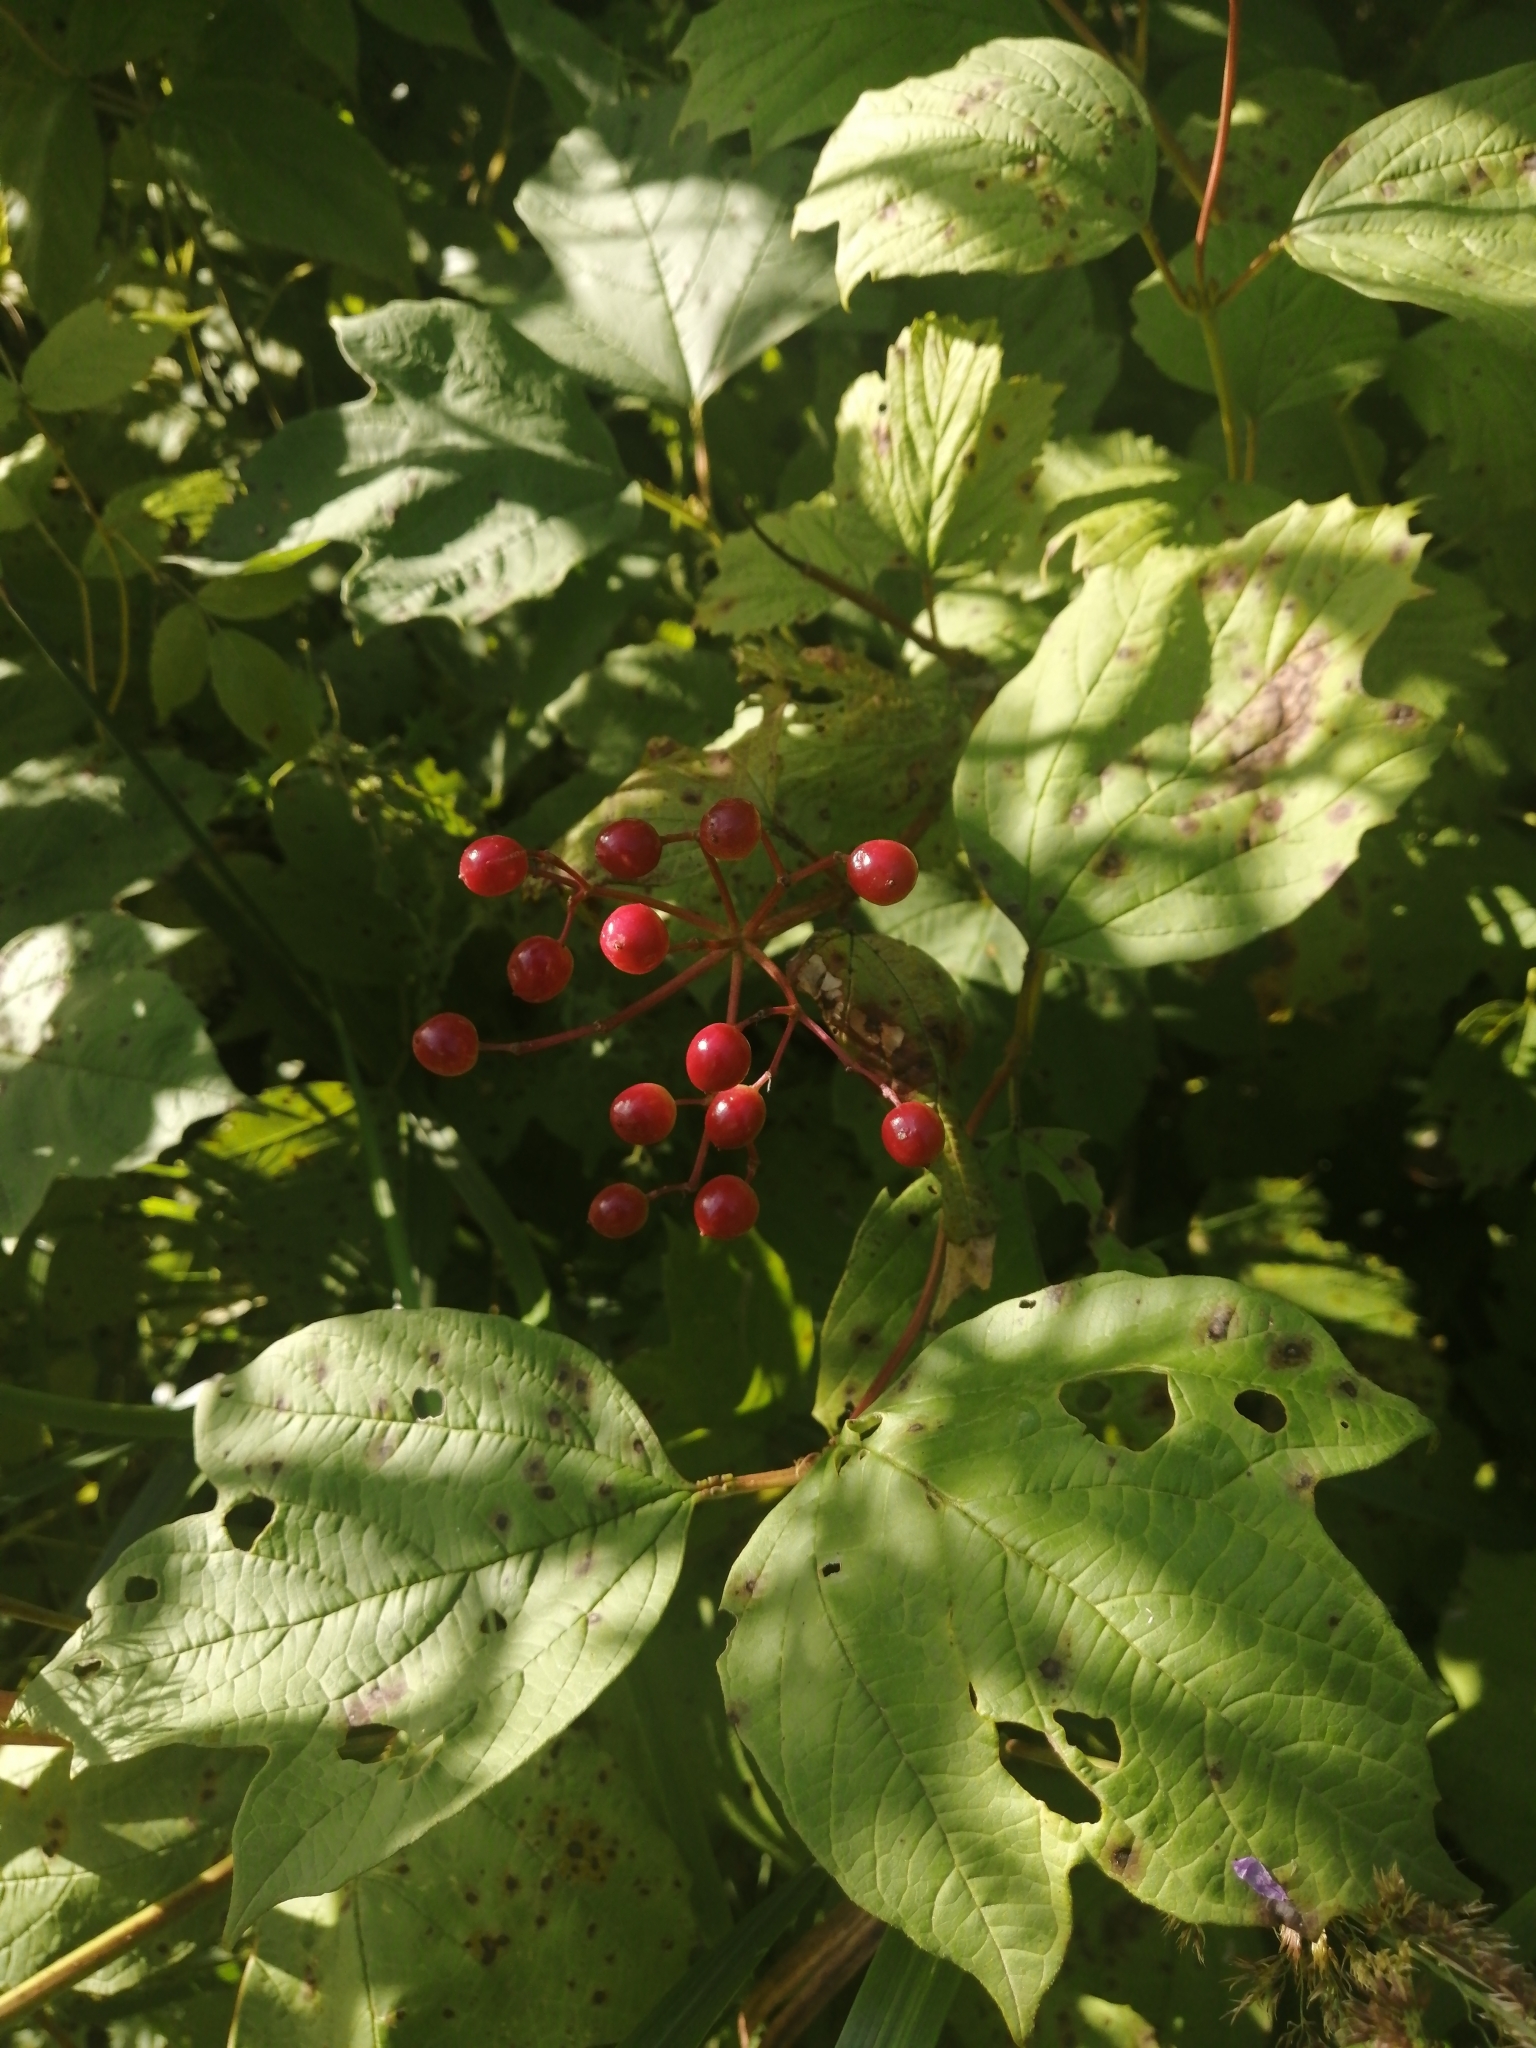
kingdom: Plantae
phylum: Tracheophyta
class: Magnoliopsida
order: Dipsacales
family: Viburnaceae
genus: Viburnum
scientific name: Viburnum opulus
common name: Guelder-rose
